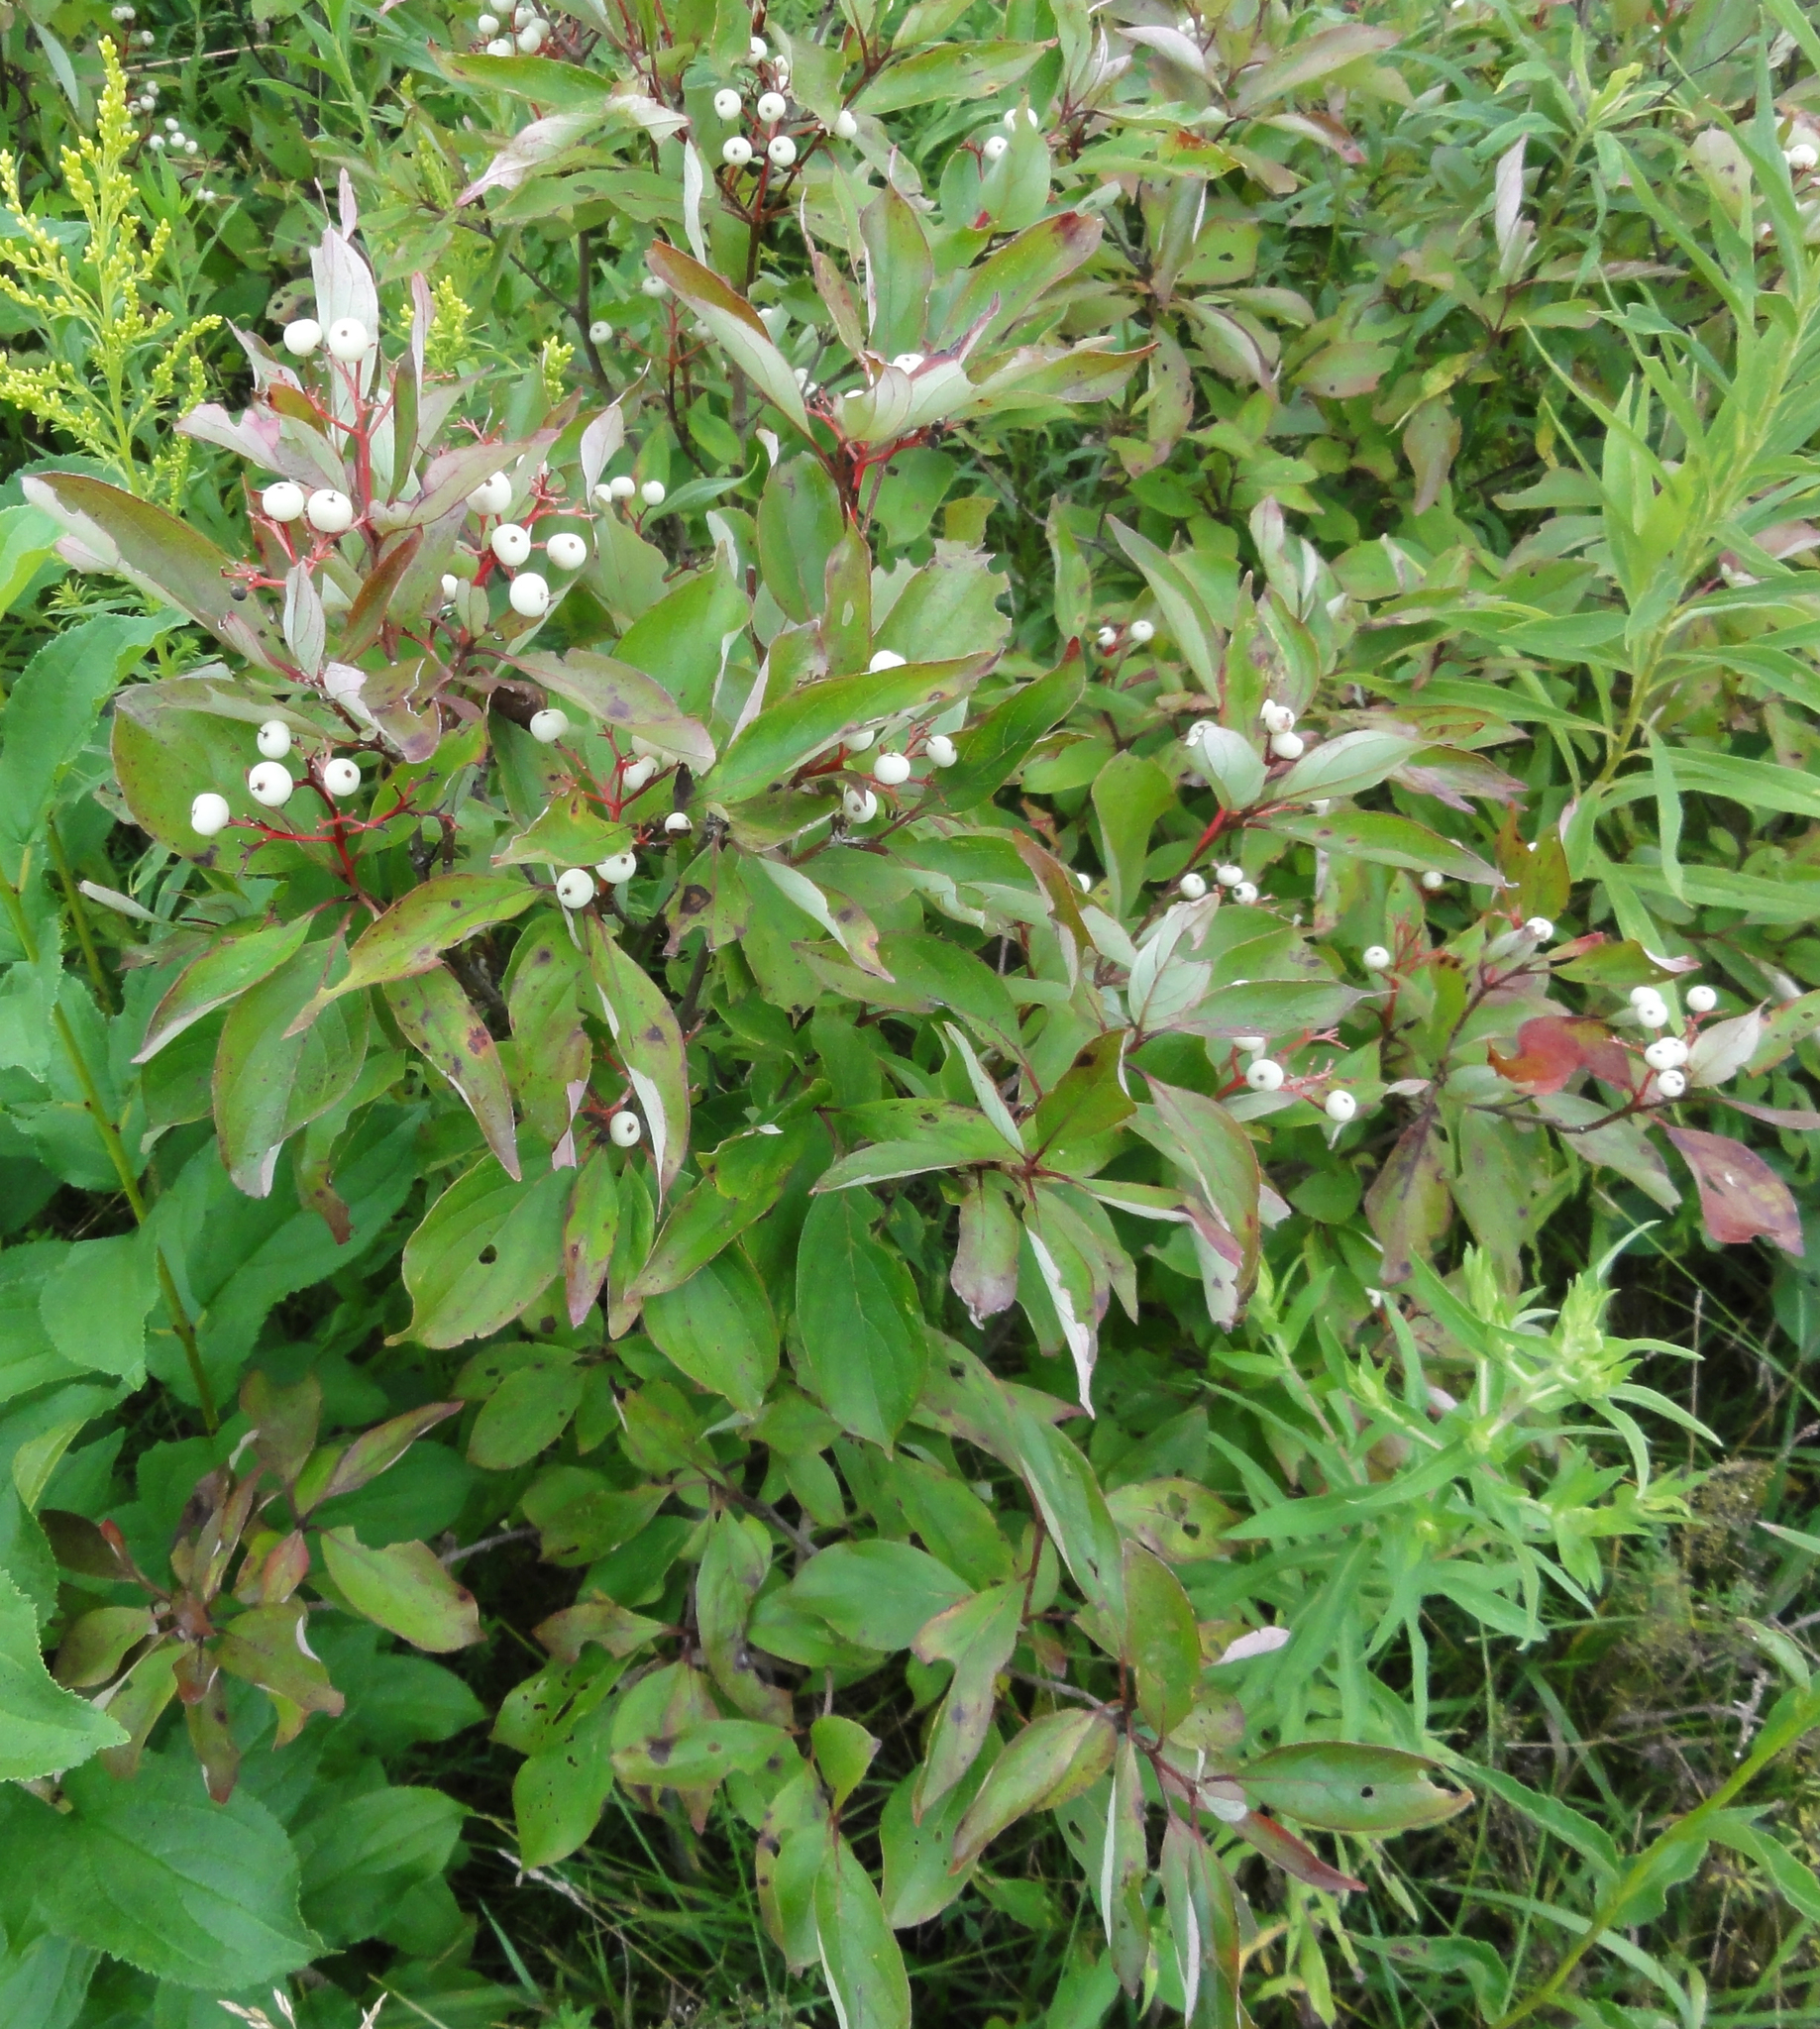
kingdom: Plantae
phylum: Tracheophyta
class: Magnoliopsida
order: Cornales
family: Cornaceae
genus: Cornus
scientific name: Cornus racemosa
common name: Panicled dogwood
